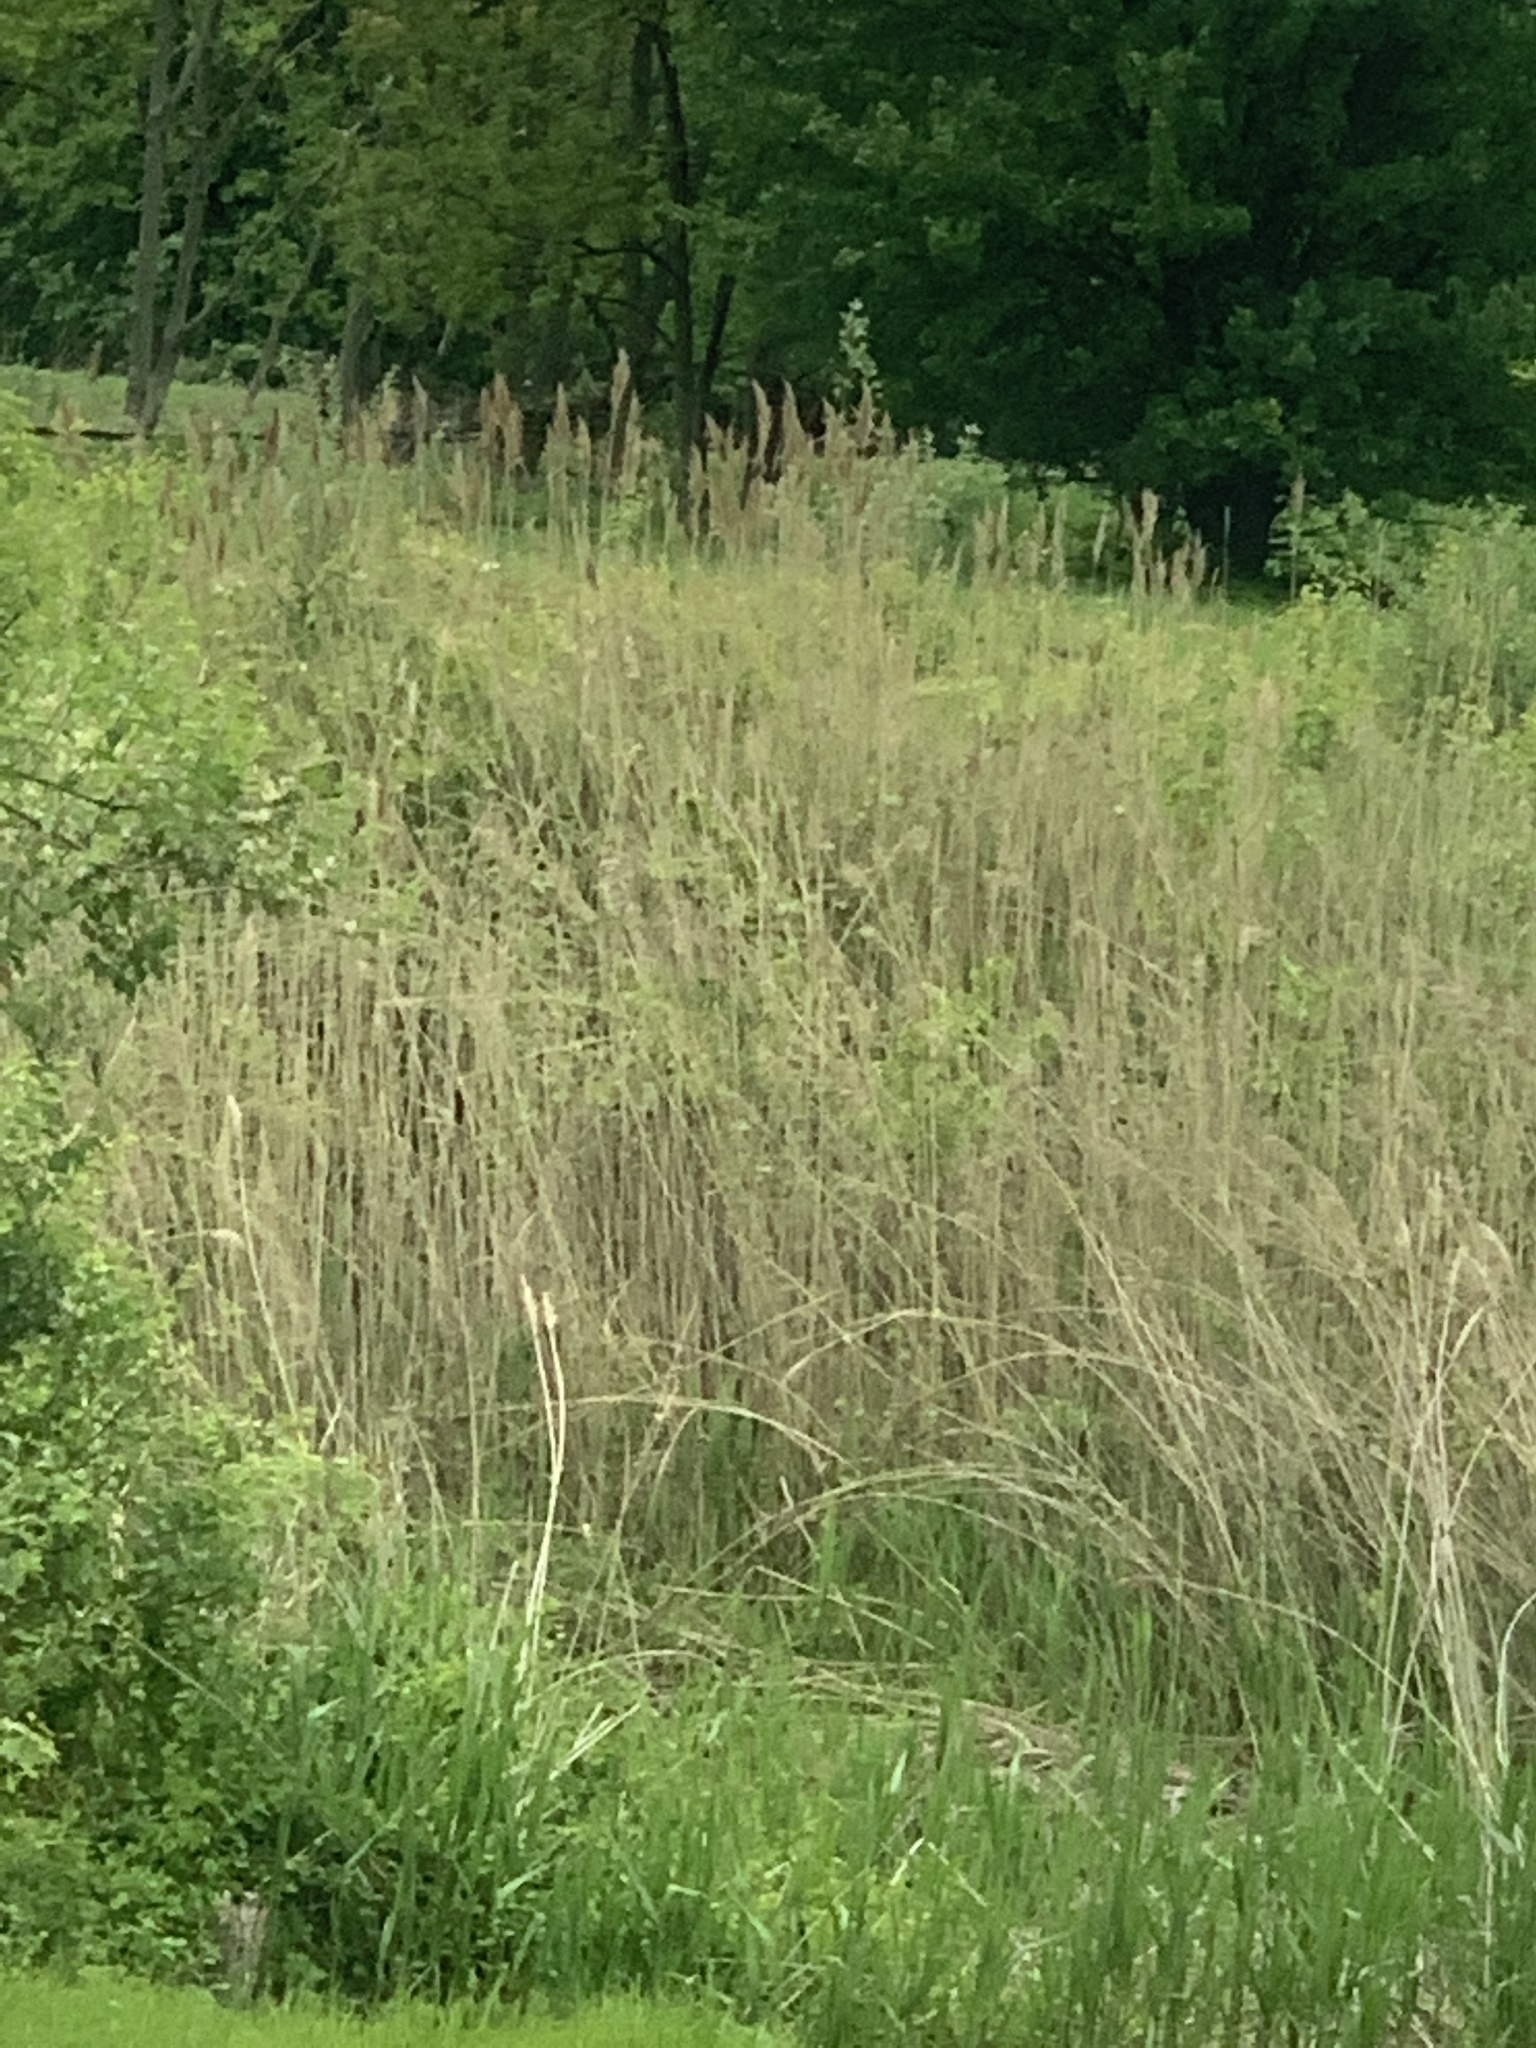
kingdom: Plantae
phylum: Tracheophyta
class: Liliopsida
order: Poales
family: Poaceae
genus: Phragmites
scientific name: Phragmites australis
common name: Common reed
